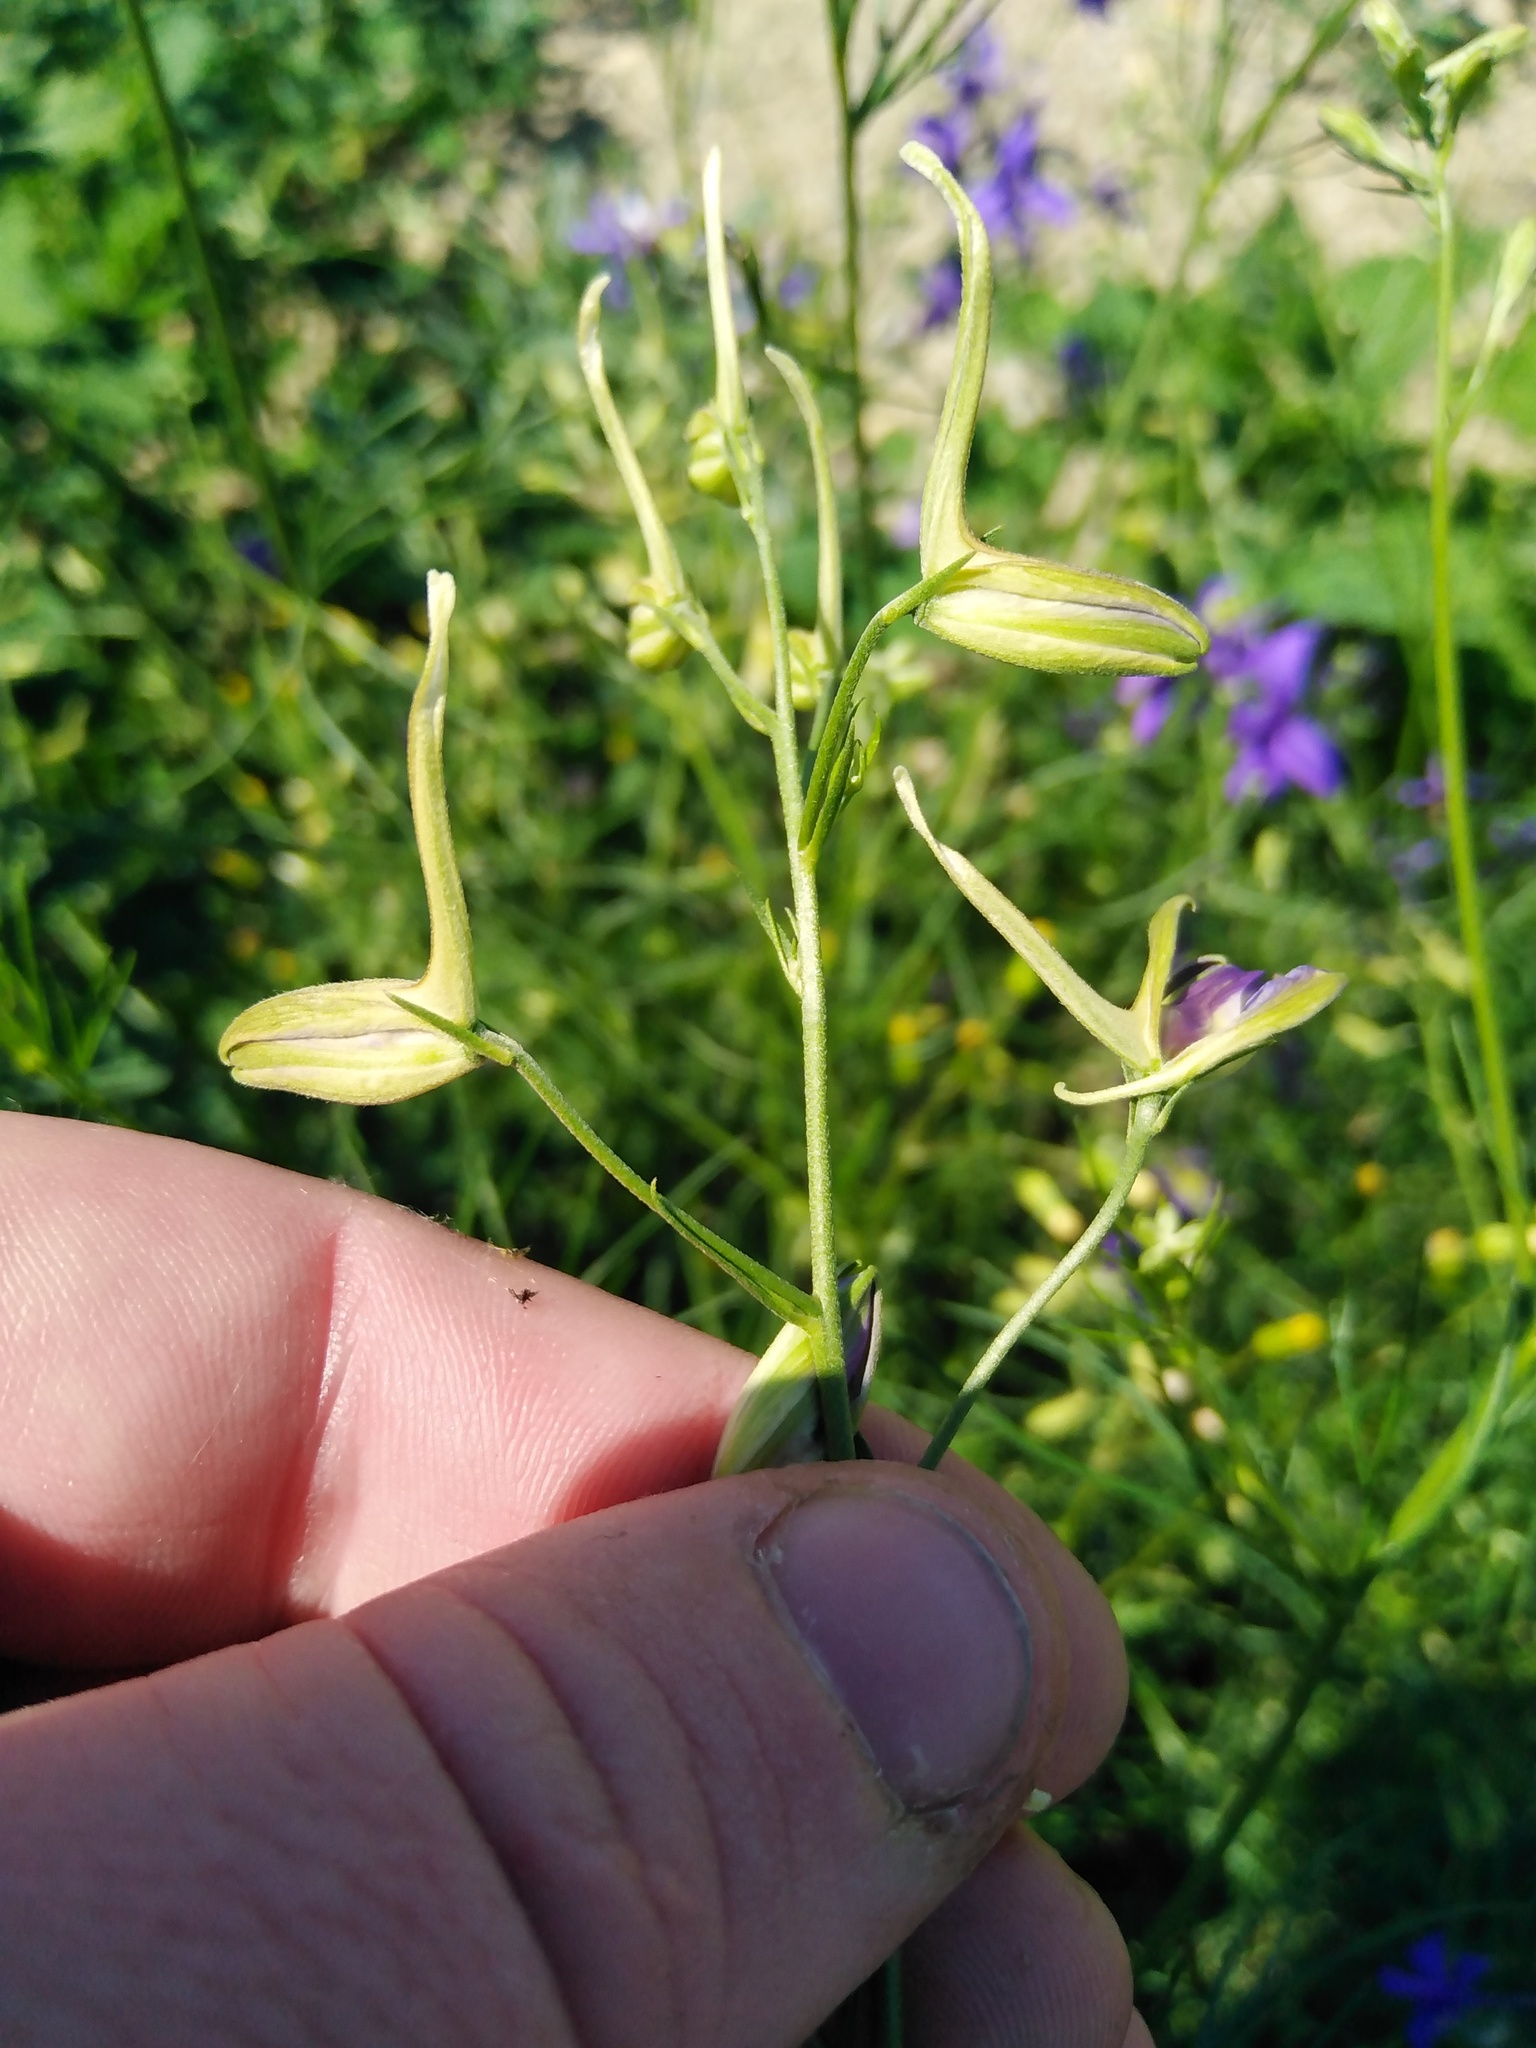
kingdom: Plantae
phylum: Tracheophyta
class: Magnoliopsida
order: Ranunculales
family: Ranunculaceae
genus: Delphinium
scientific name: Delphinium consolida
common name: Branching larkspur
